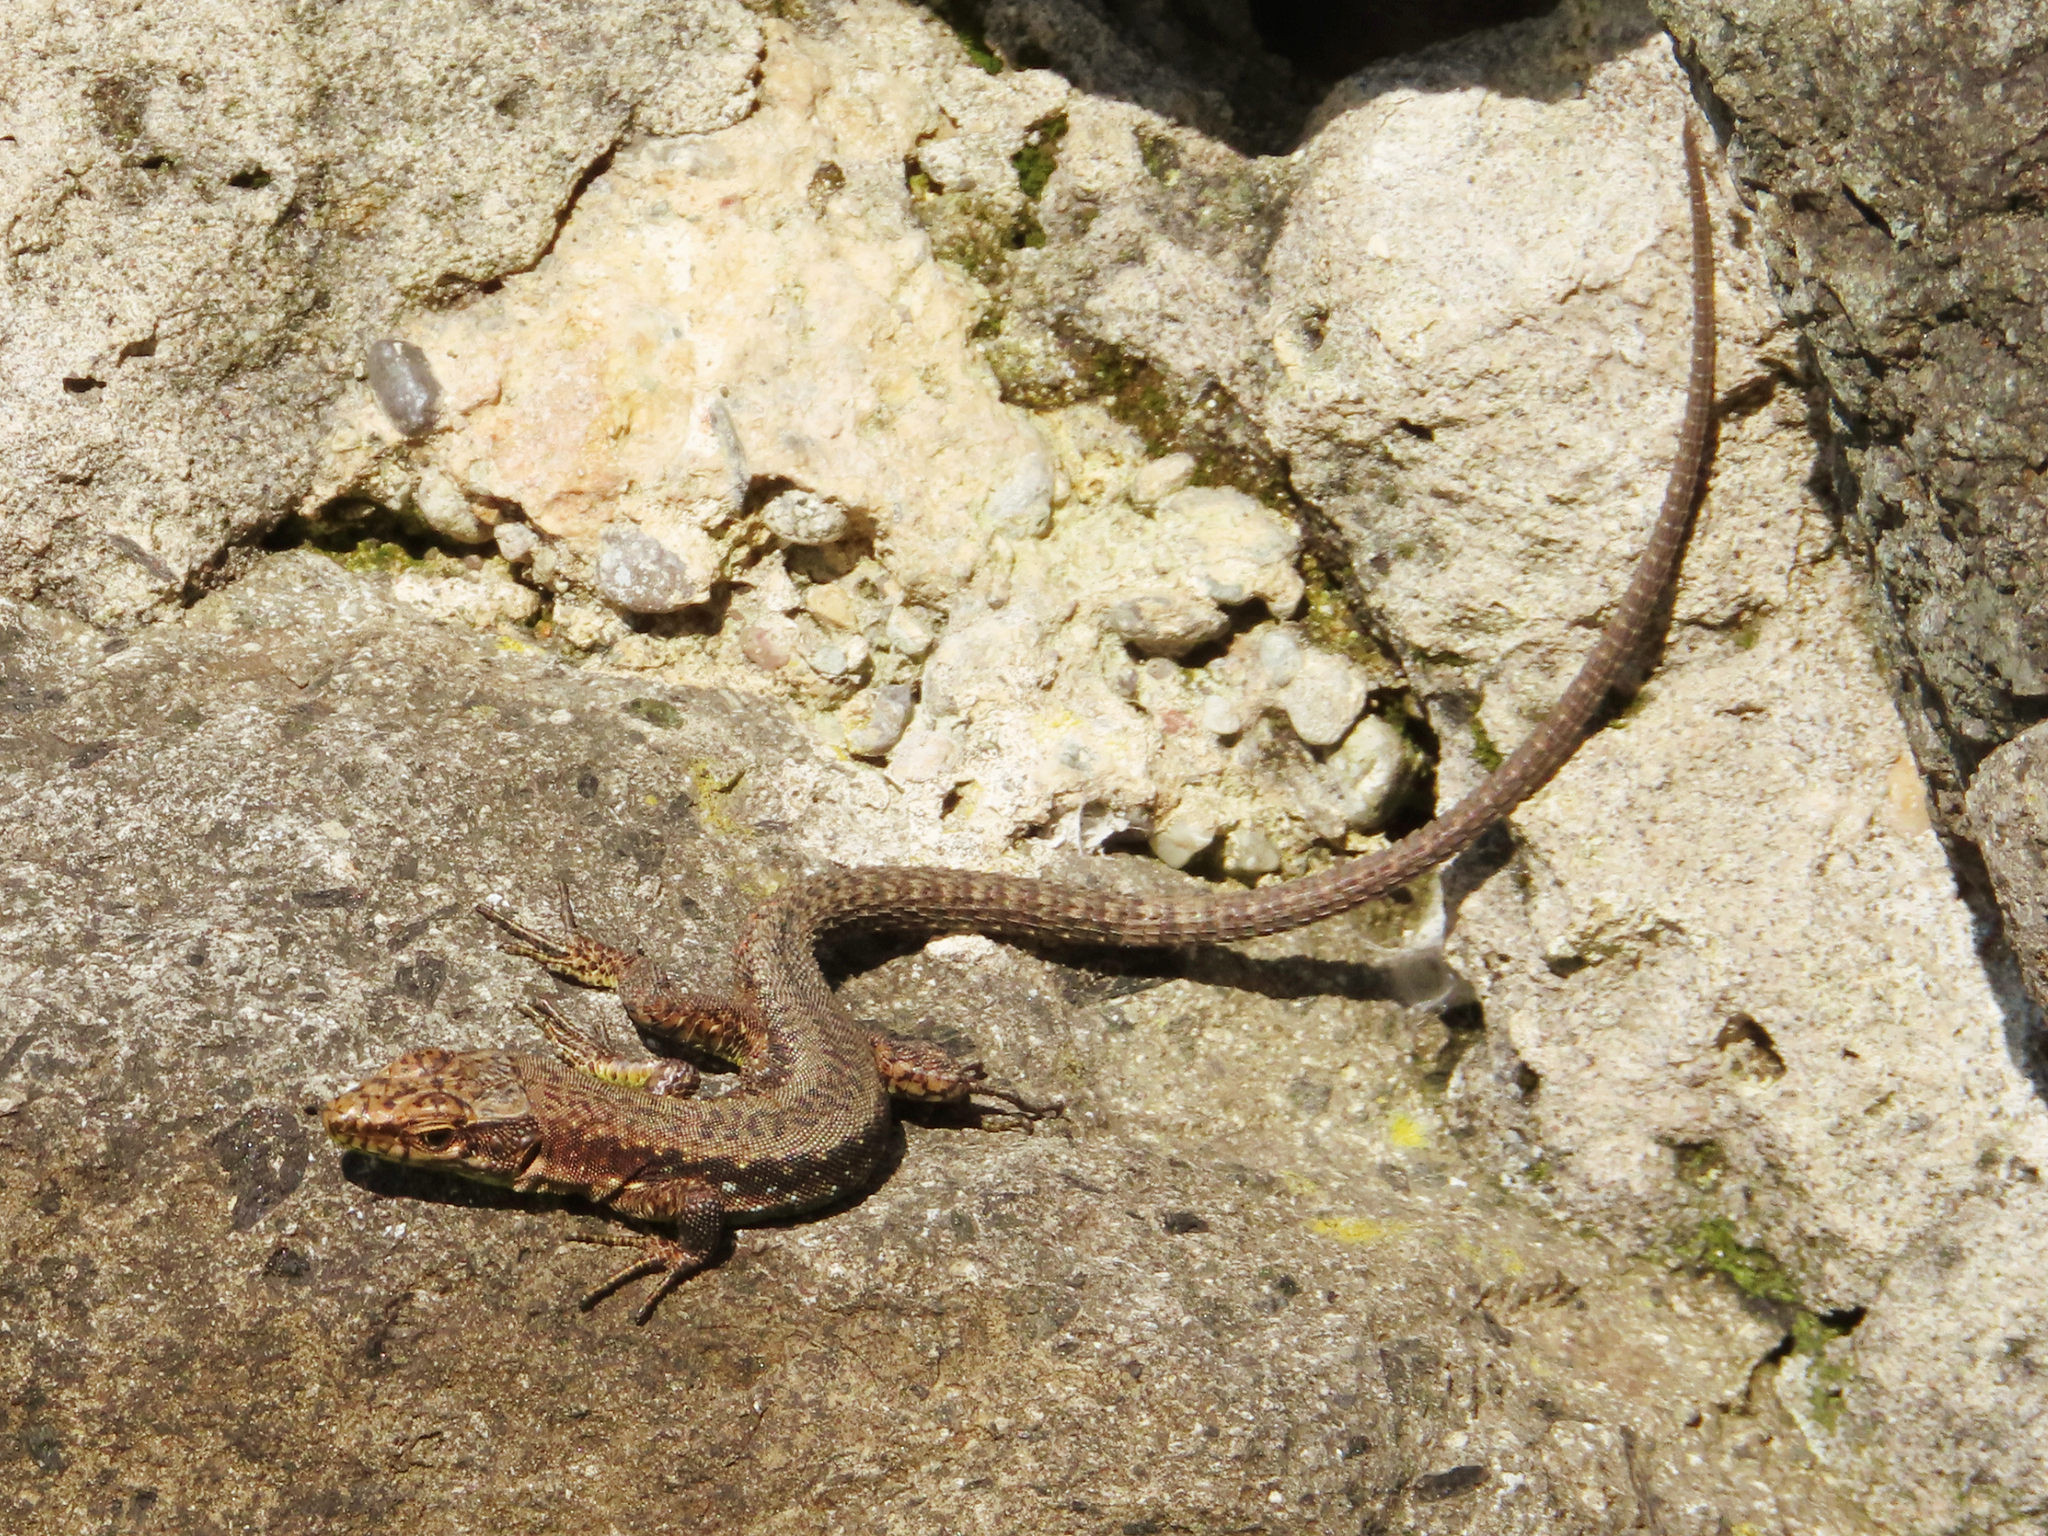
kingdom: Animalia
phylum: Chordata
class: Squamata
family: Lacertidae
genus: Darevskia
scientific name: Darevskia rudis
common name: Spiny-tailed lizard
